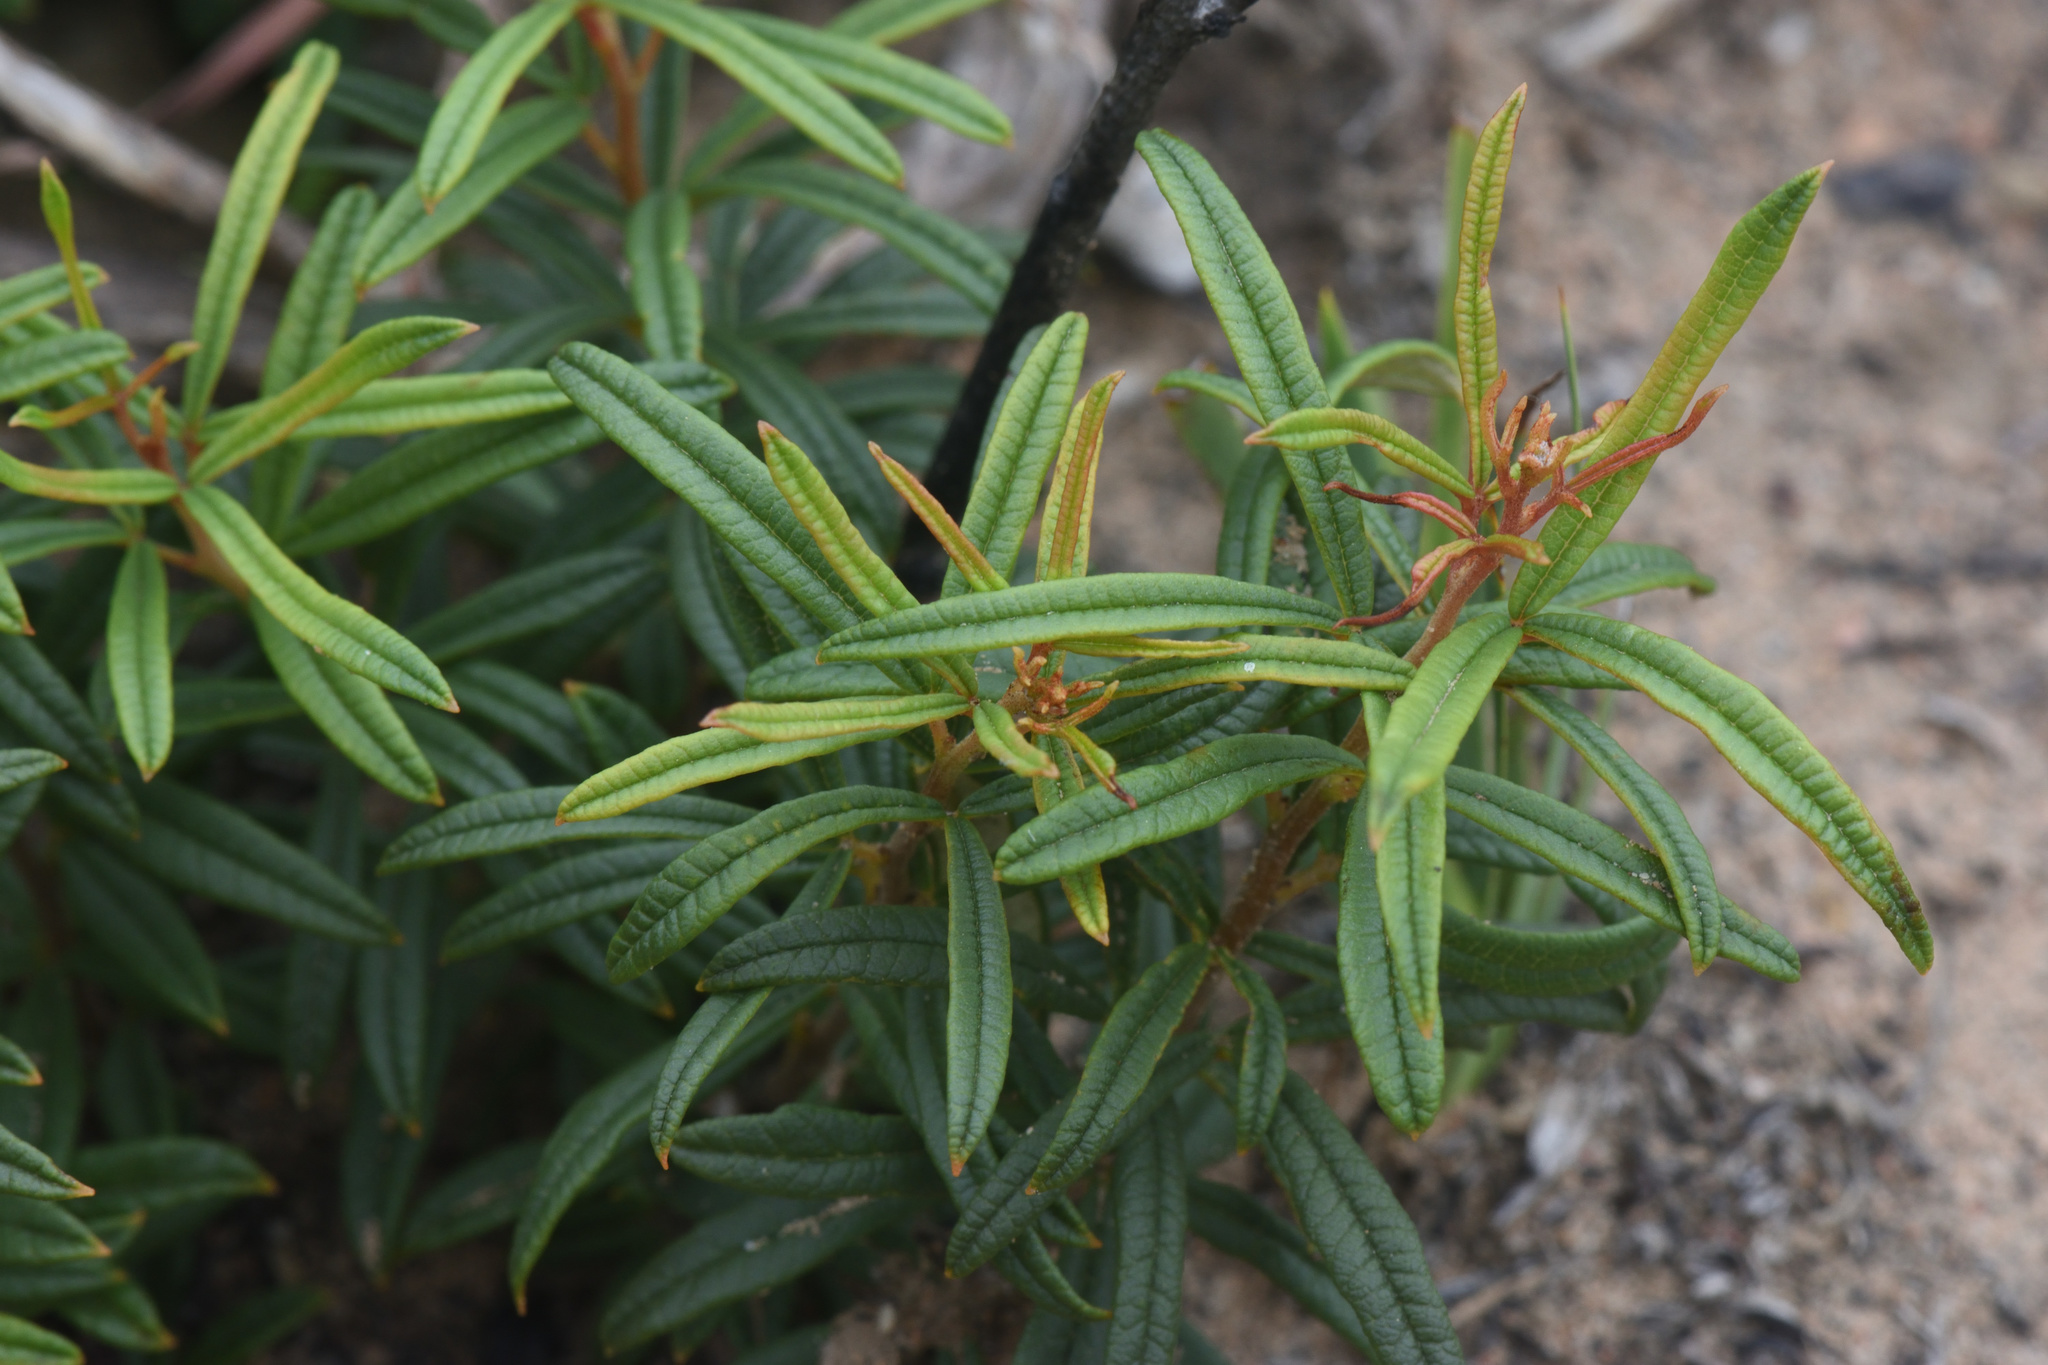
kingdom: Plantae
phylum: Tracheophyta
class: Magnoliopsida
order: Sapindales
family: Anacardiaceae
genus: Searsia
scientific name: Searsia rosmarinifolia
